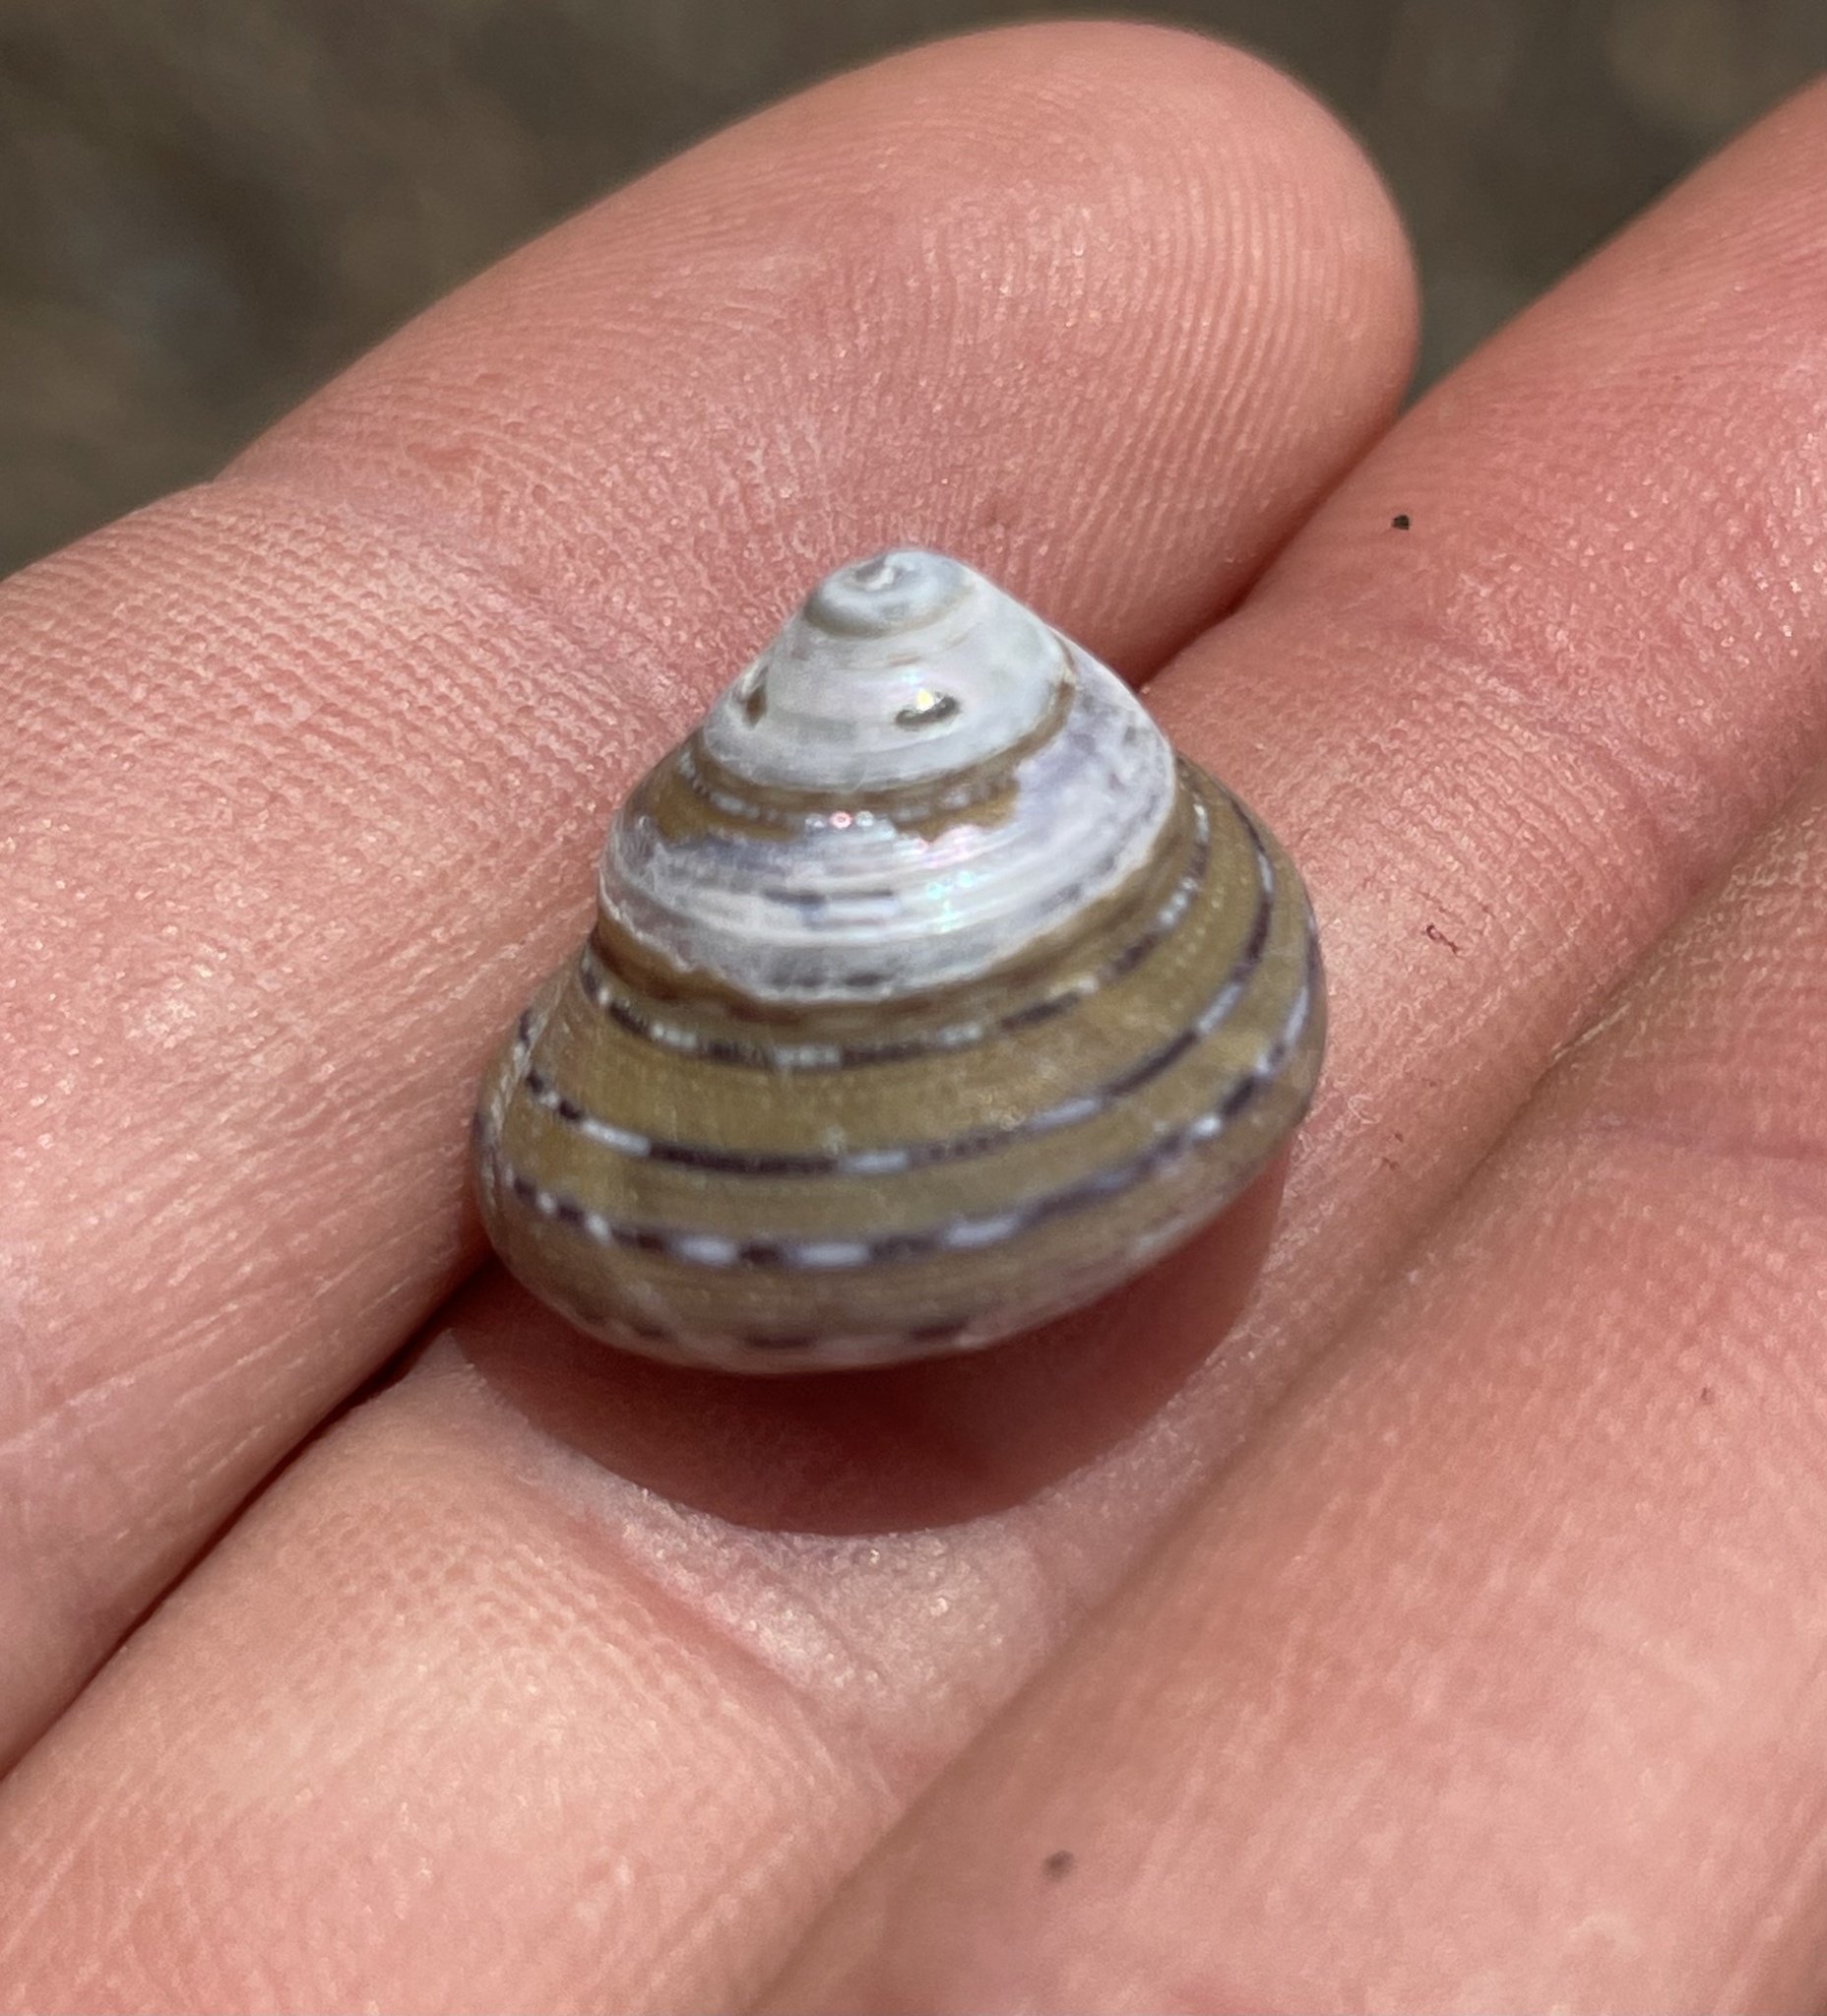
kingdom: Animalia
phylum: Mollusca
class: Gastropoda
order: Trochida
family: Calliostomatidae
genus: Calliostoma
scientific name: Calliostoma tricolor
